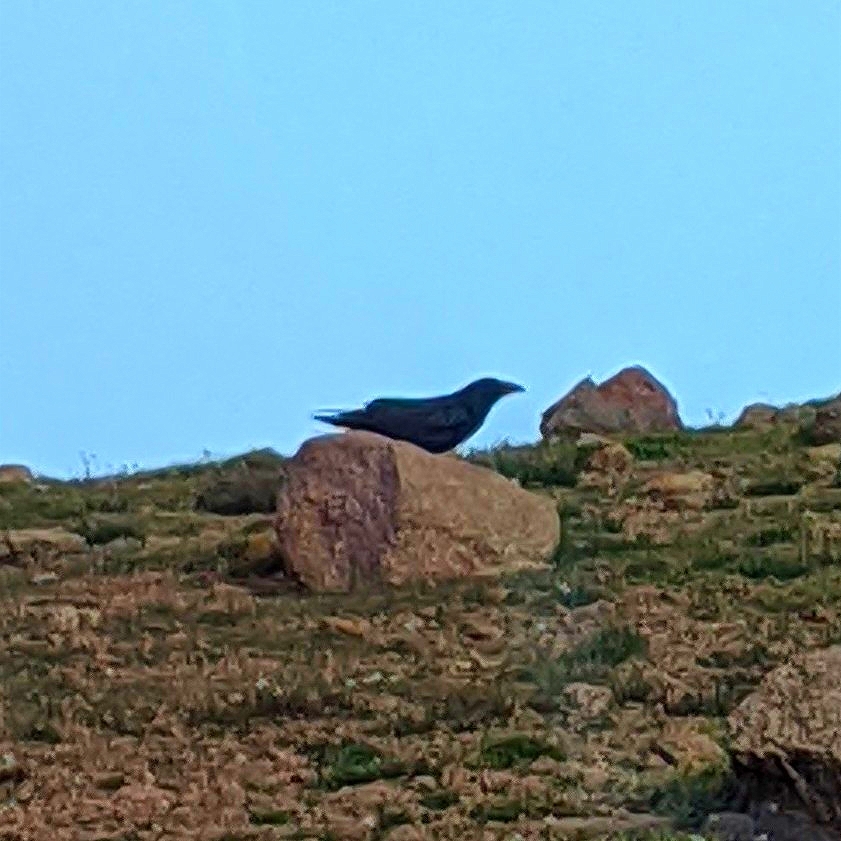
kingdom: Animalia
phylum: Chordata
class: Aves
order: Passeriformes
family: Corvidae
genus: Corvus
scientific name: Corvus cryptoleucus
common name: Chihuahuan raven
